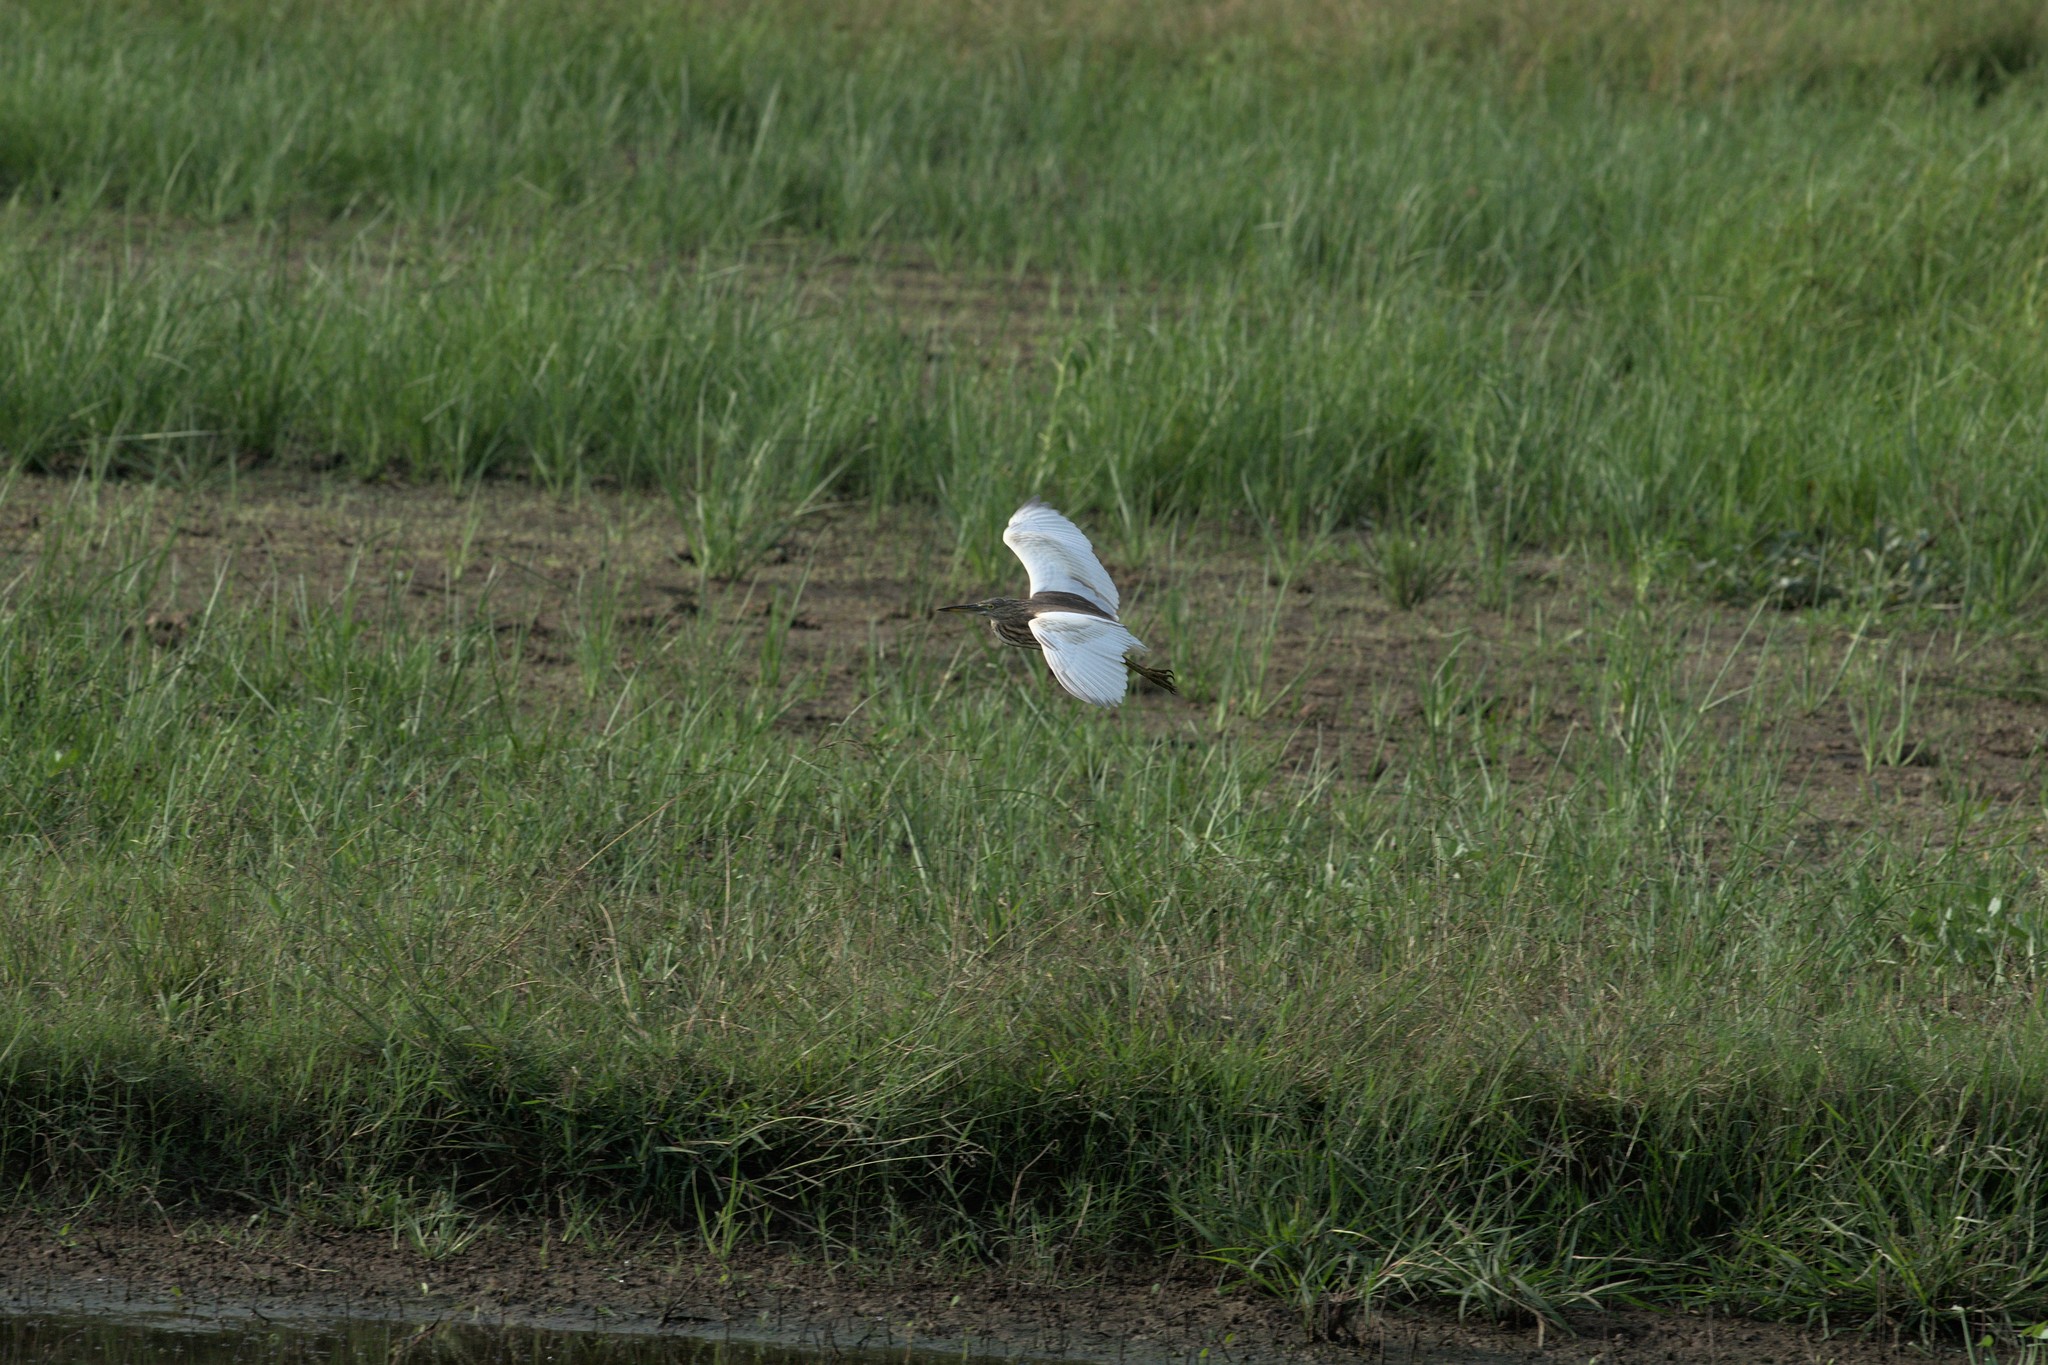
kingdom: Animalia
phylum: Chordata
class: Aves
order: Pelecaniformes
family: Ardeidae
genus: Ardeola
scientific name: Ardeola grayii
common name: Indian pond heron
